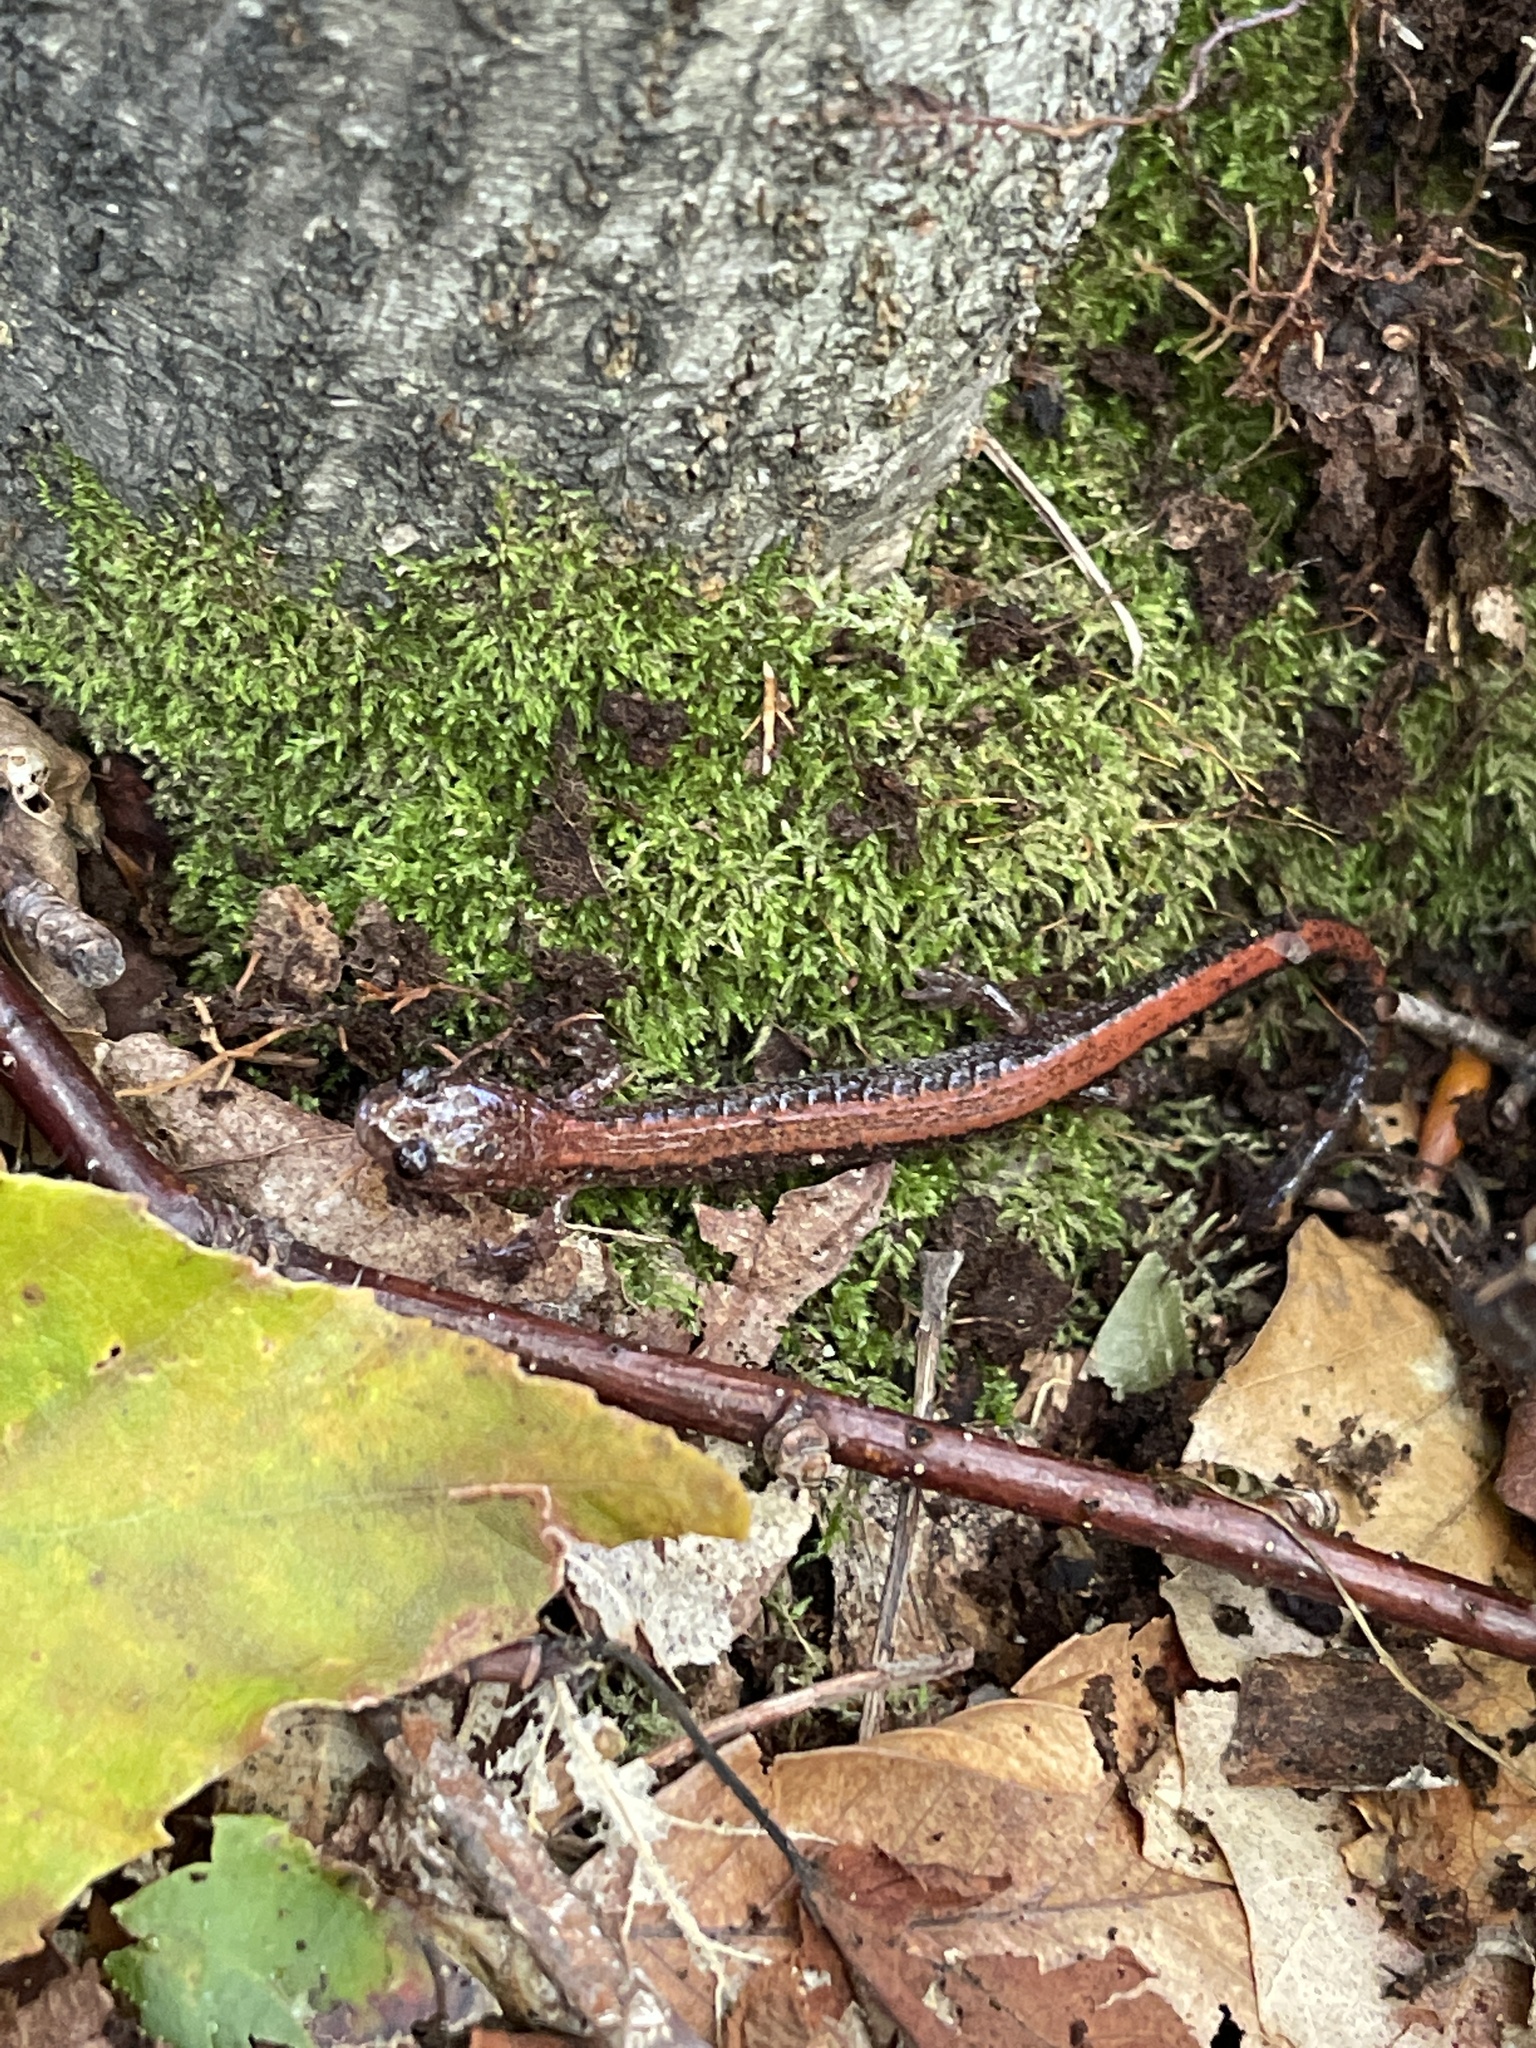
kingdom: Animalia
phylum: Chordata
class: Amphibia
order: Caudata
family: Plethodontidae
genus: Plethodon
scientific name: Plethodon cinereus
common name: Redback salamander
